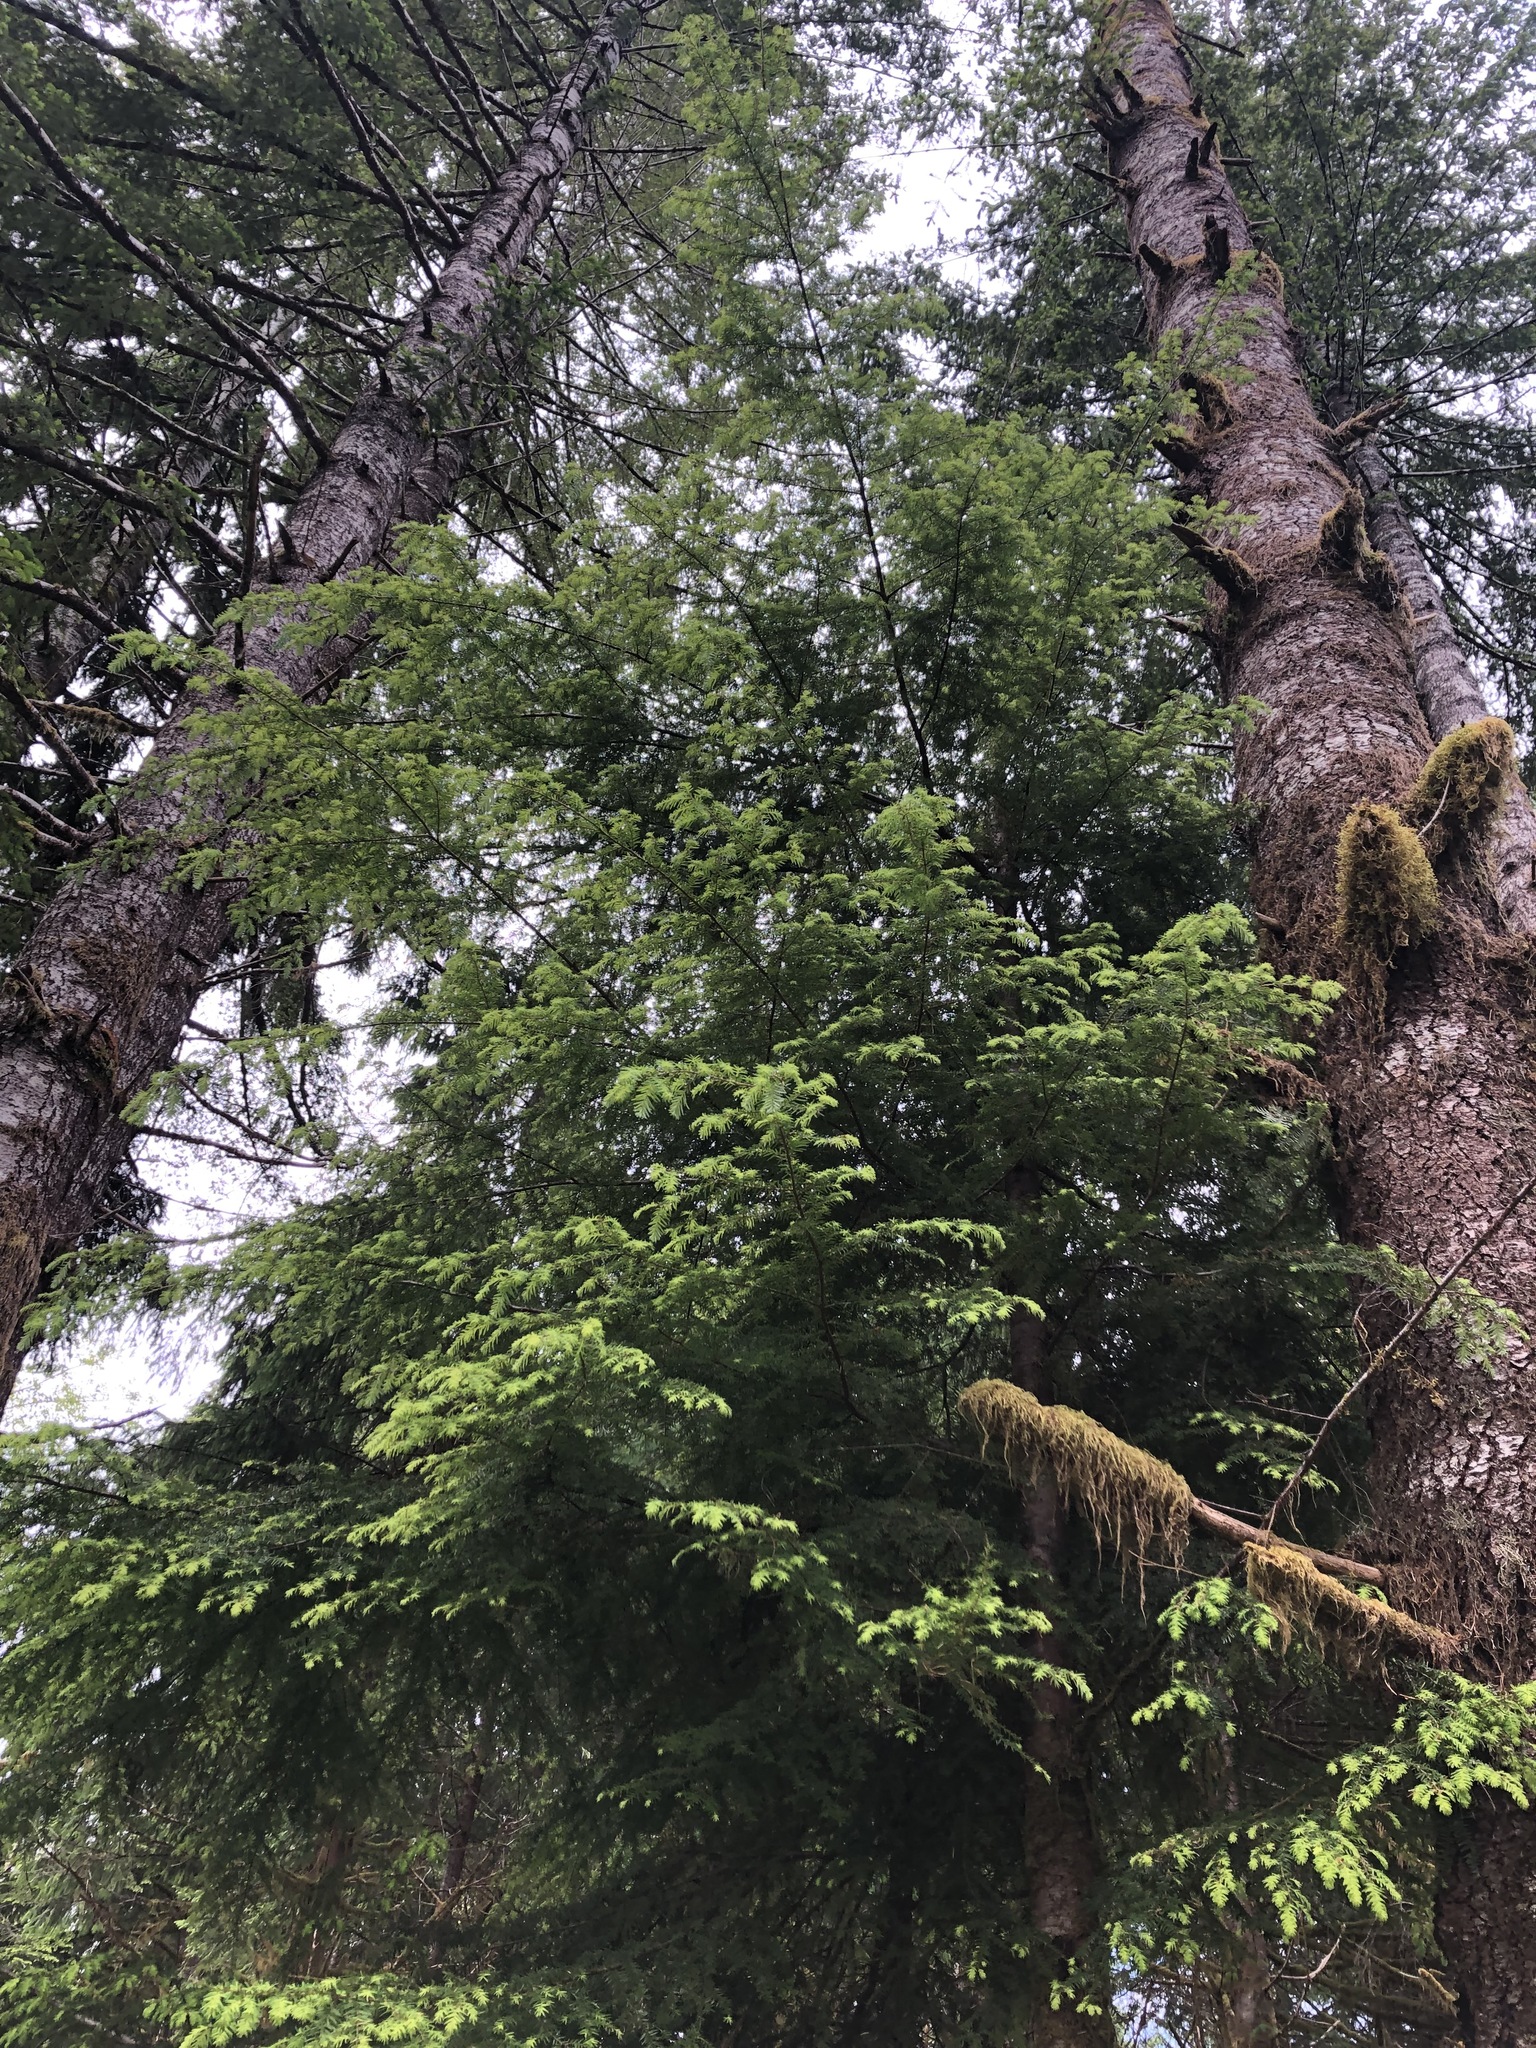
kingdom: Plantae
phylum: Tracheophyta
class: Pinopsida
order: Pinales
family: Pinaceae
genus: Tsuga
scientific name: Tsuga heterophylla
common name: Western hemlock
